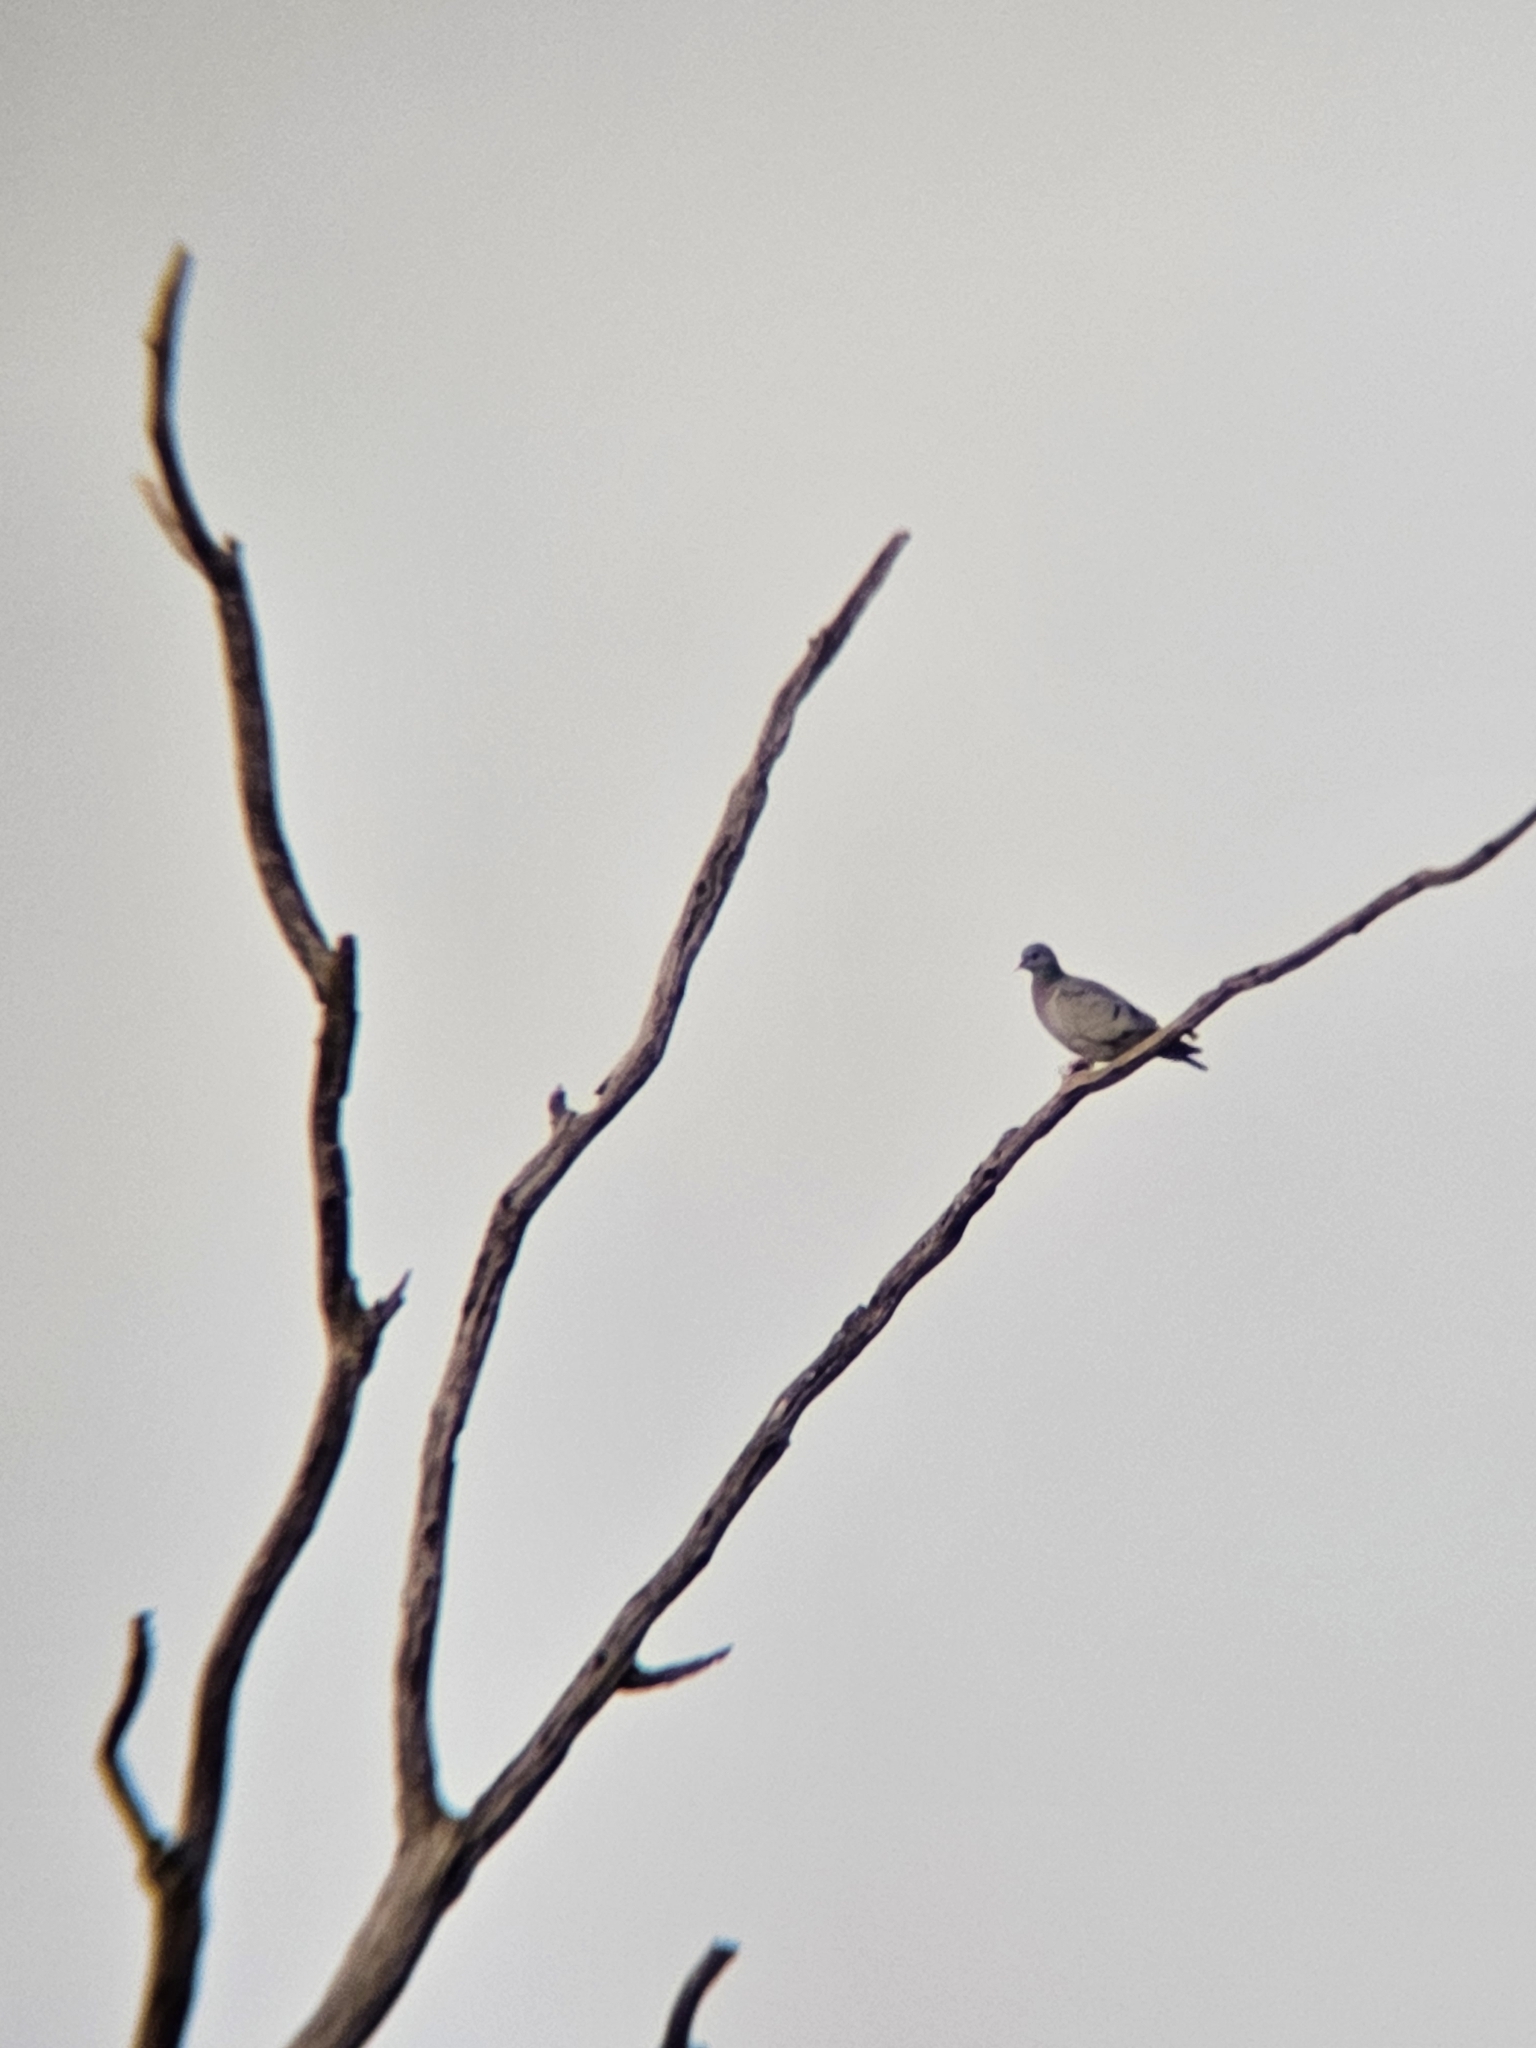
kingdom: Animalia
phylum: Chordata
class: Aves
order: Columbiformes
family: Columbidae
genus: Columba
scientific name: Columba oenas
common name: Stock dove
